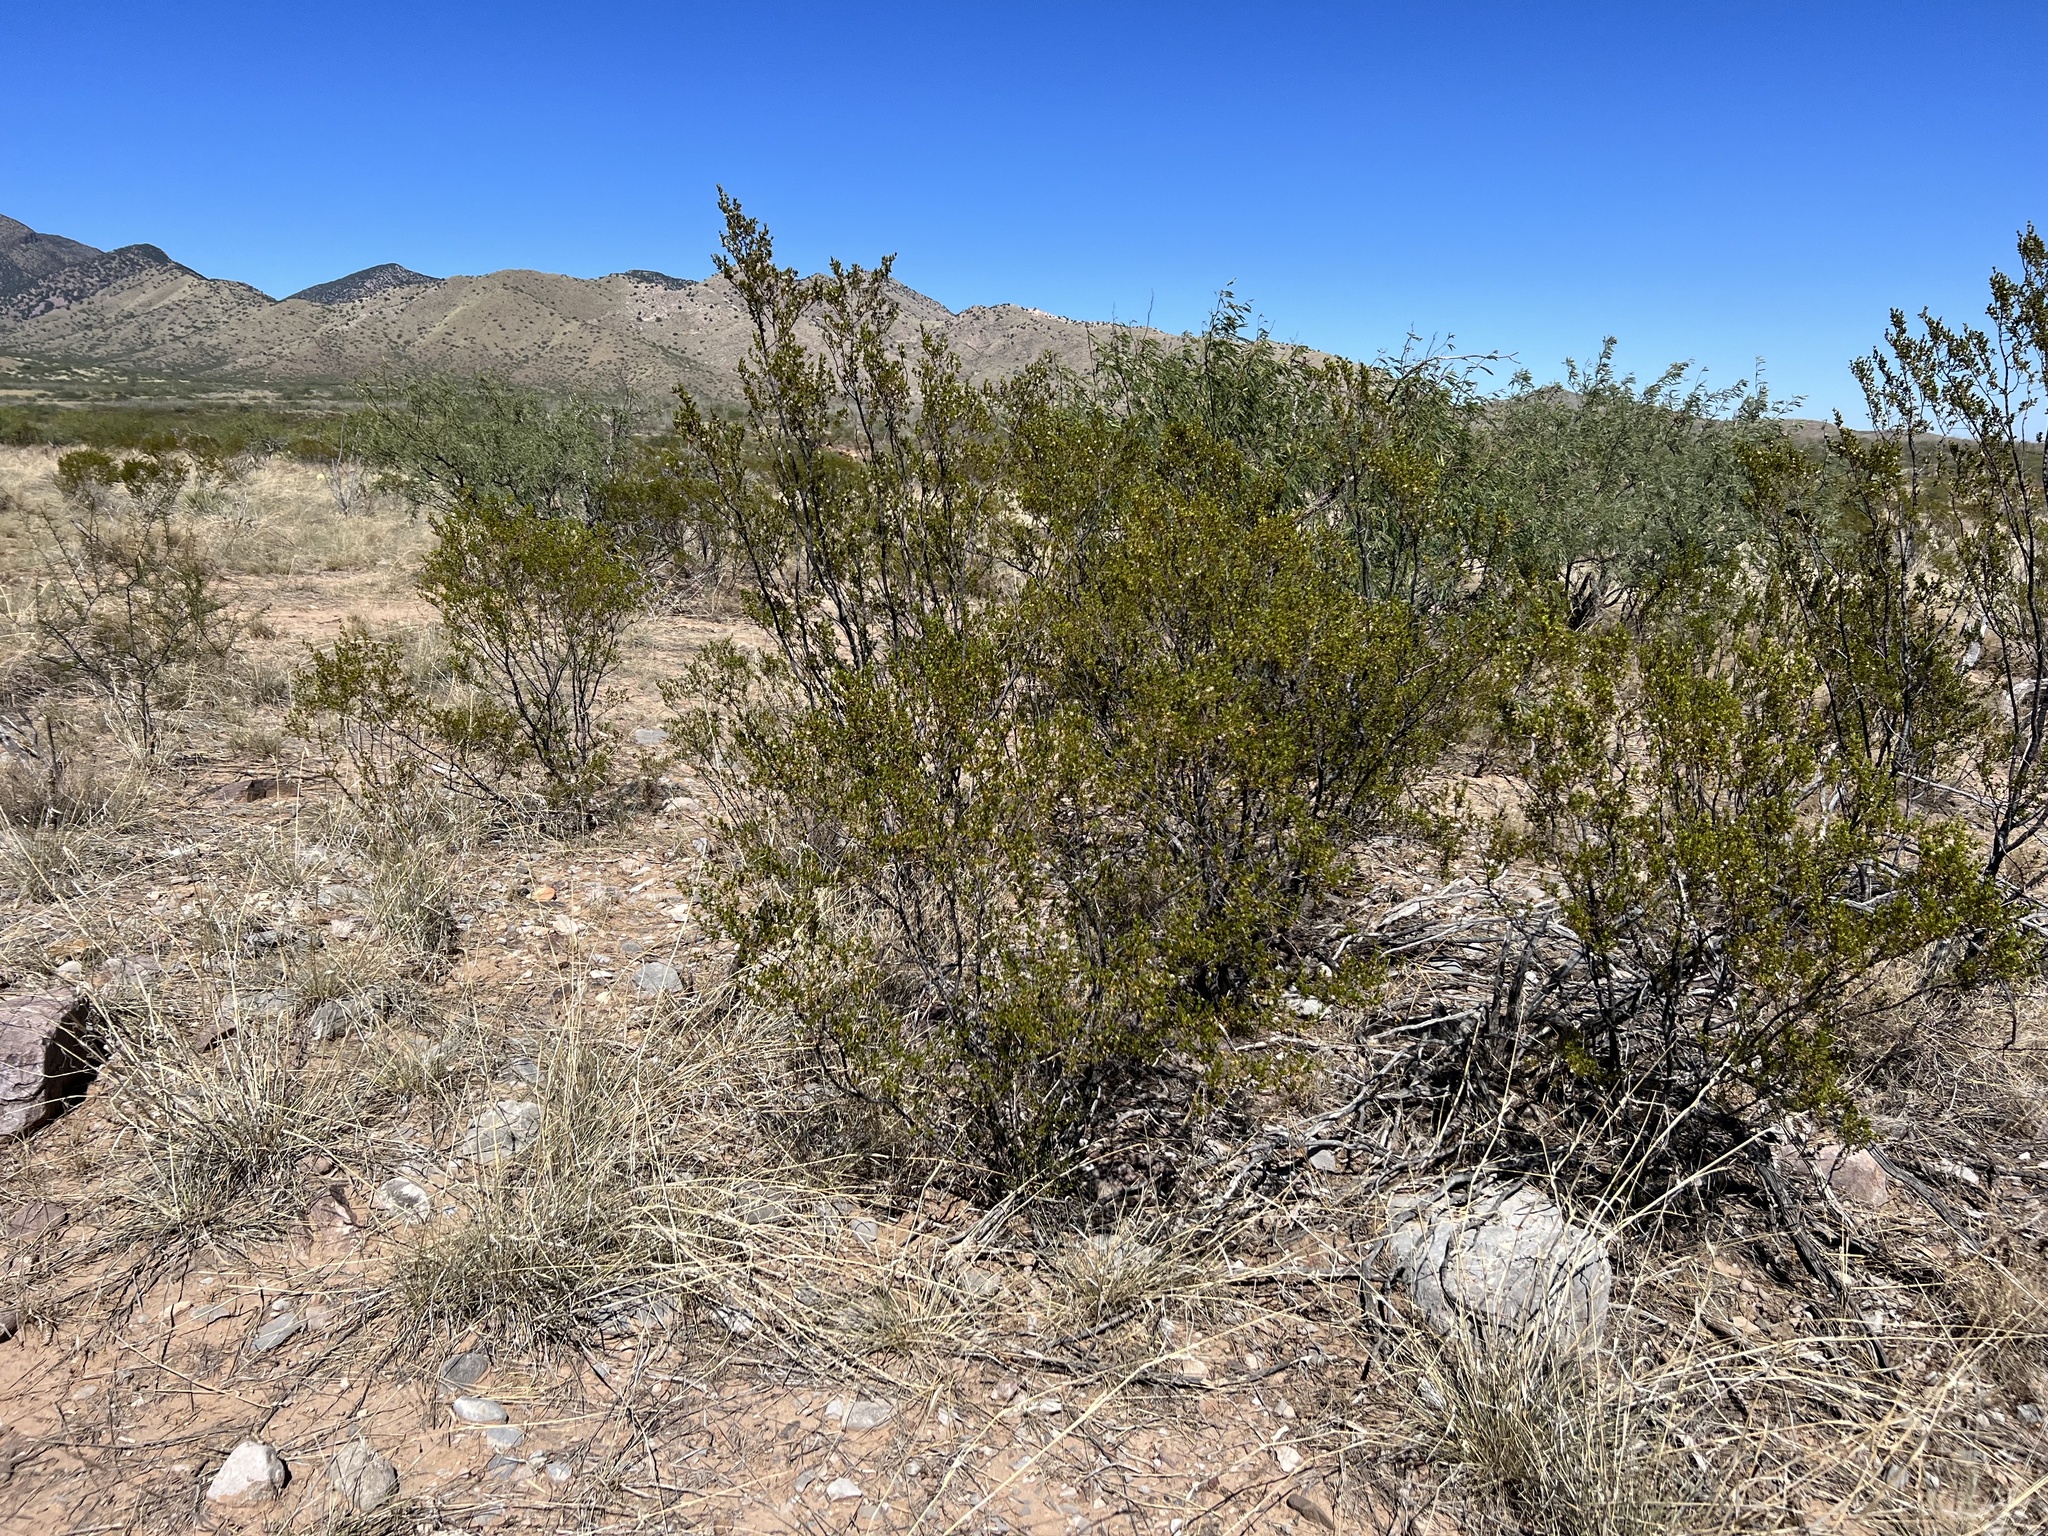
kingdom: Plantae
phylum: Tracheophyta
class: Magnoliopsida
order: Zygophyllales
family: Zygophyllaceae
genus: Larrea
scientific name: Larrea tridentata
